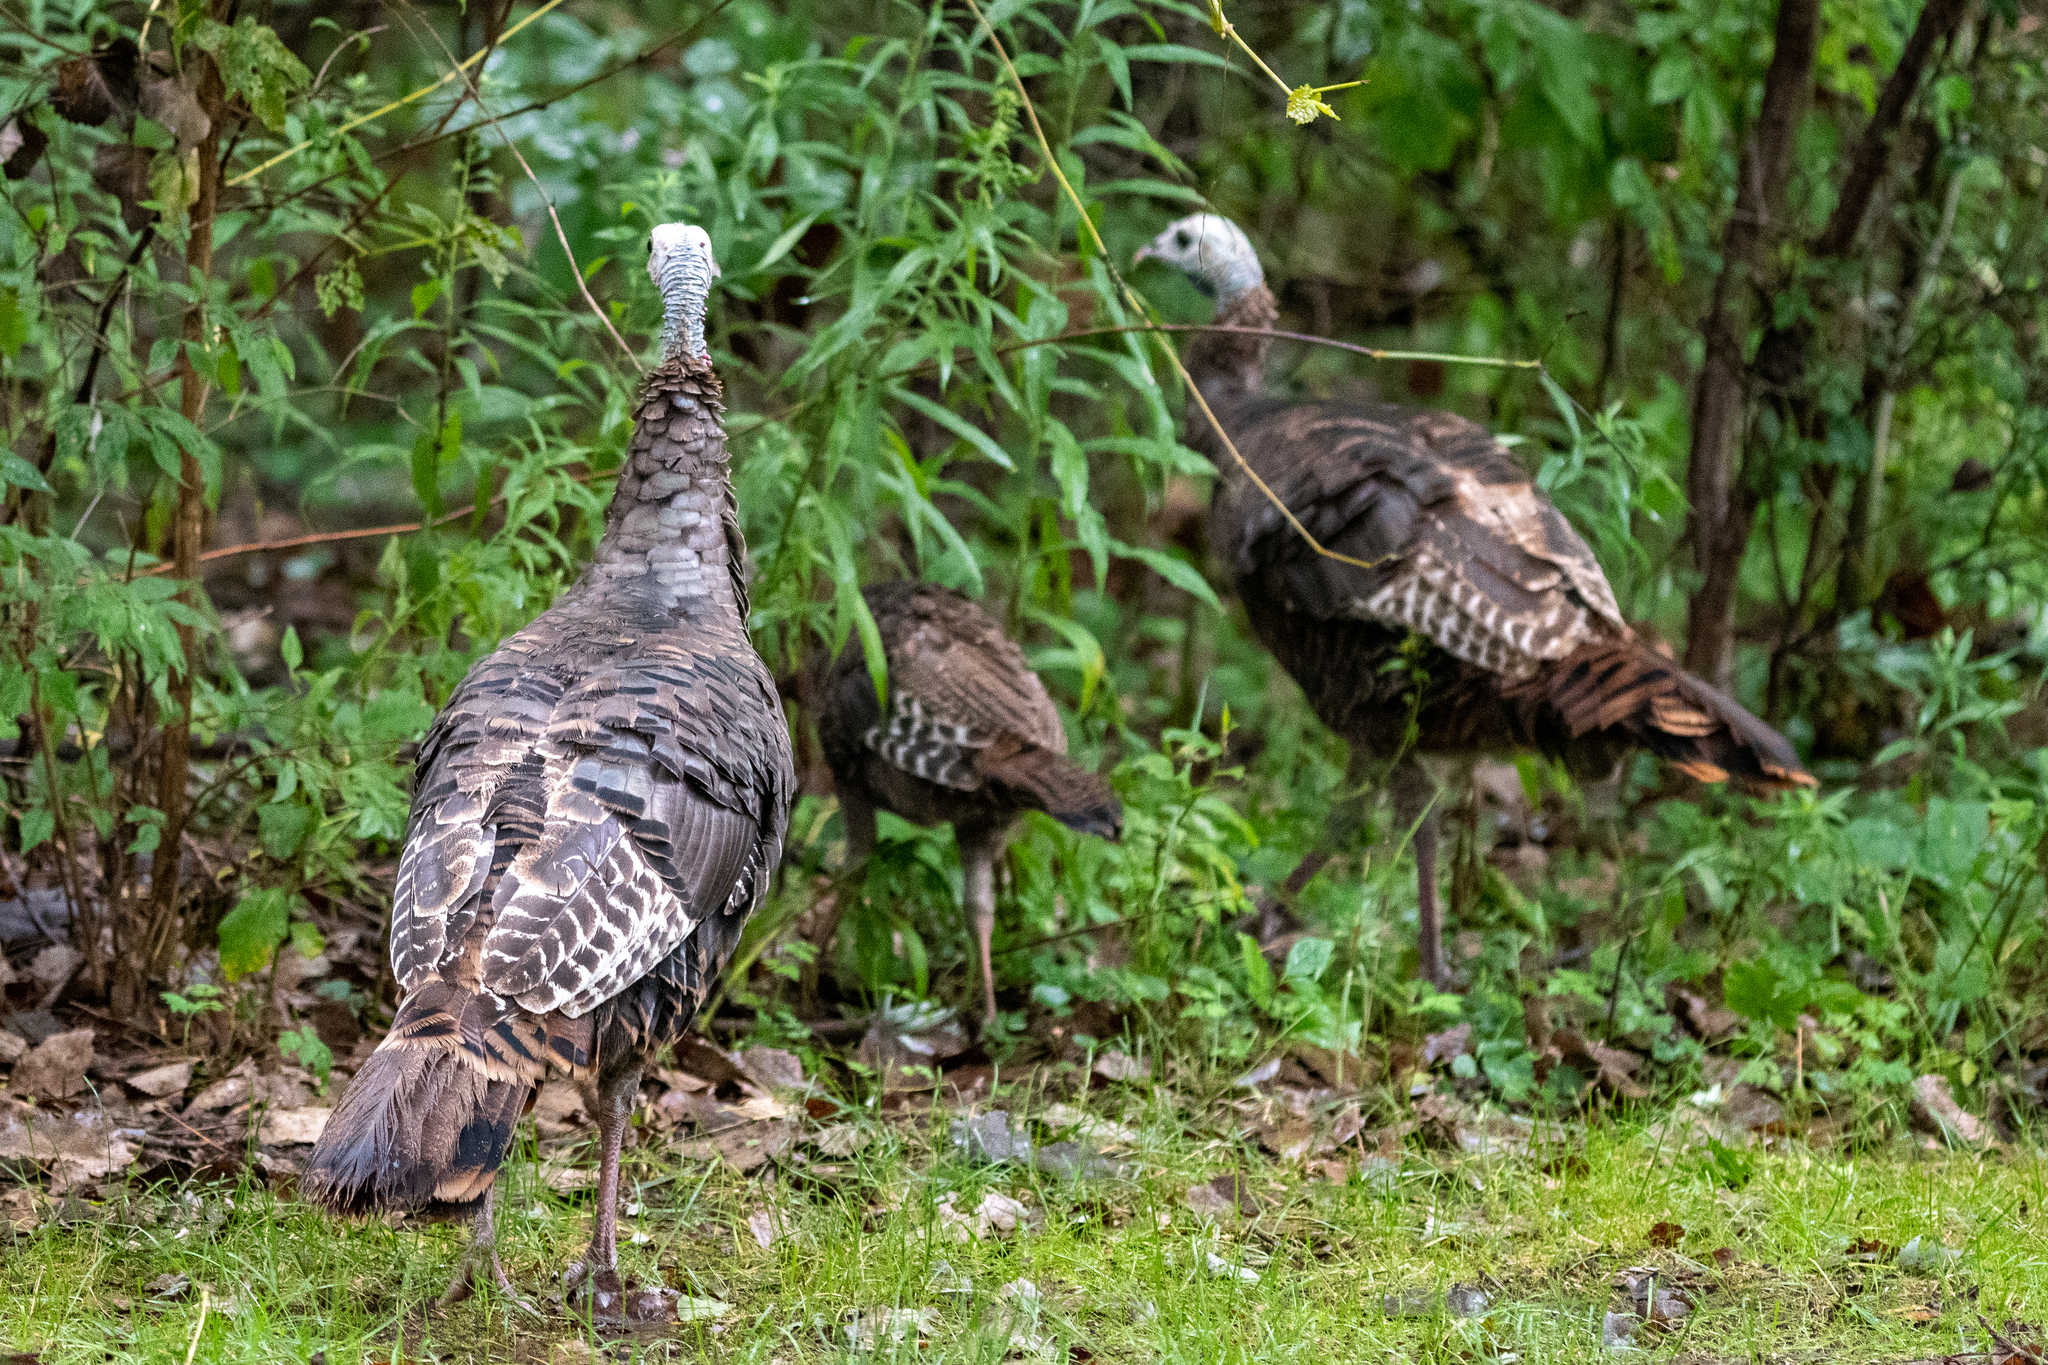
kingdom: Animalia
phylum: Chordata
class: Aves
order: Galliformes
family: Phasianidae
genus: Meleagris
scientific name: Meleagris gallopavo
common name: Wild turkey
